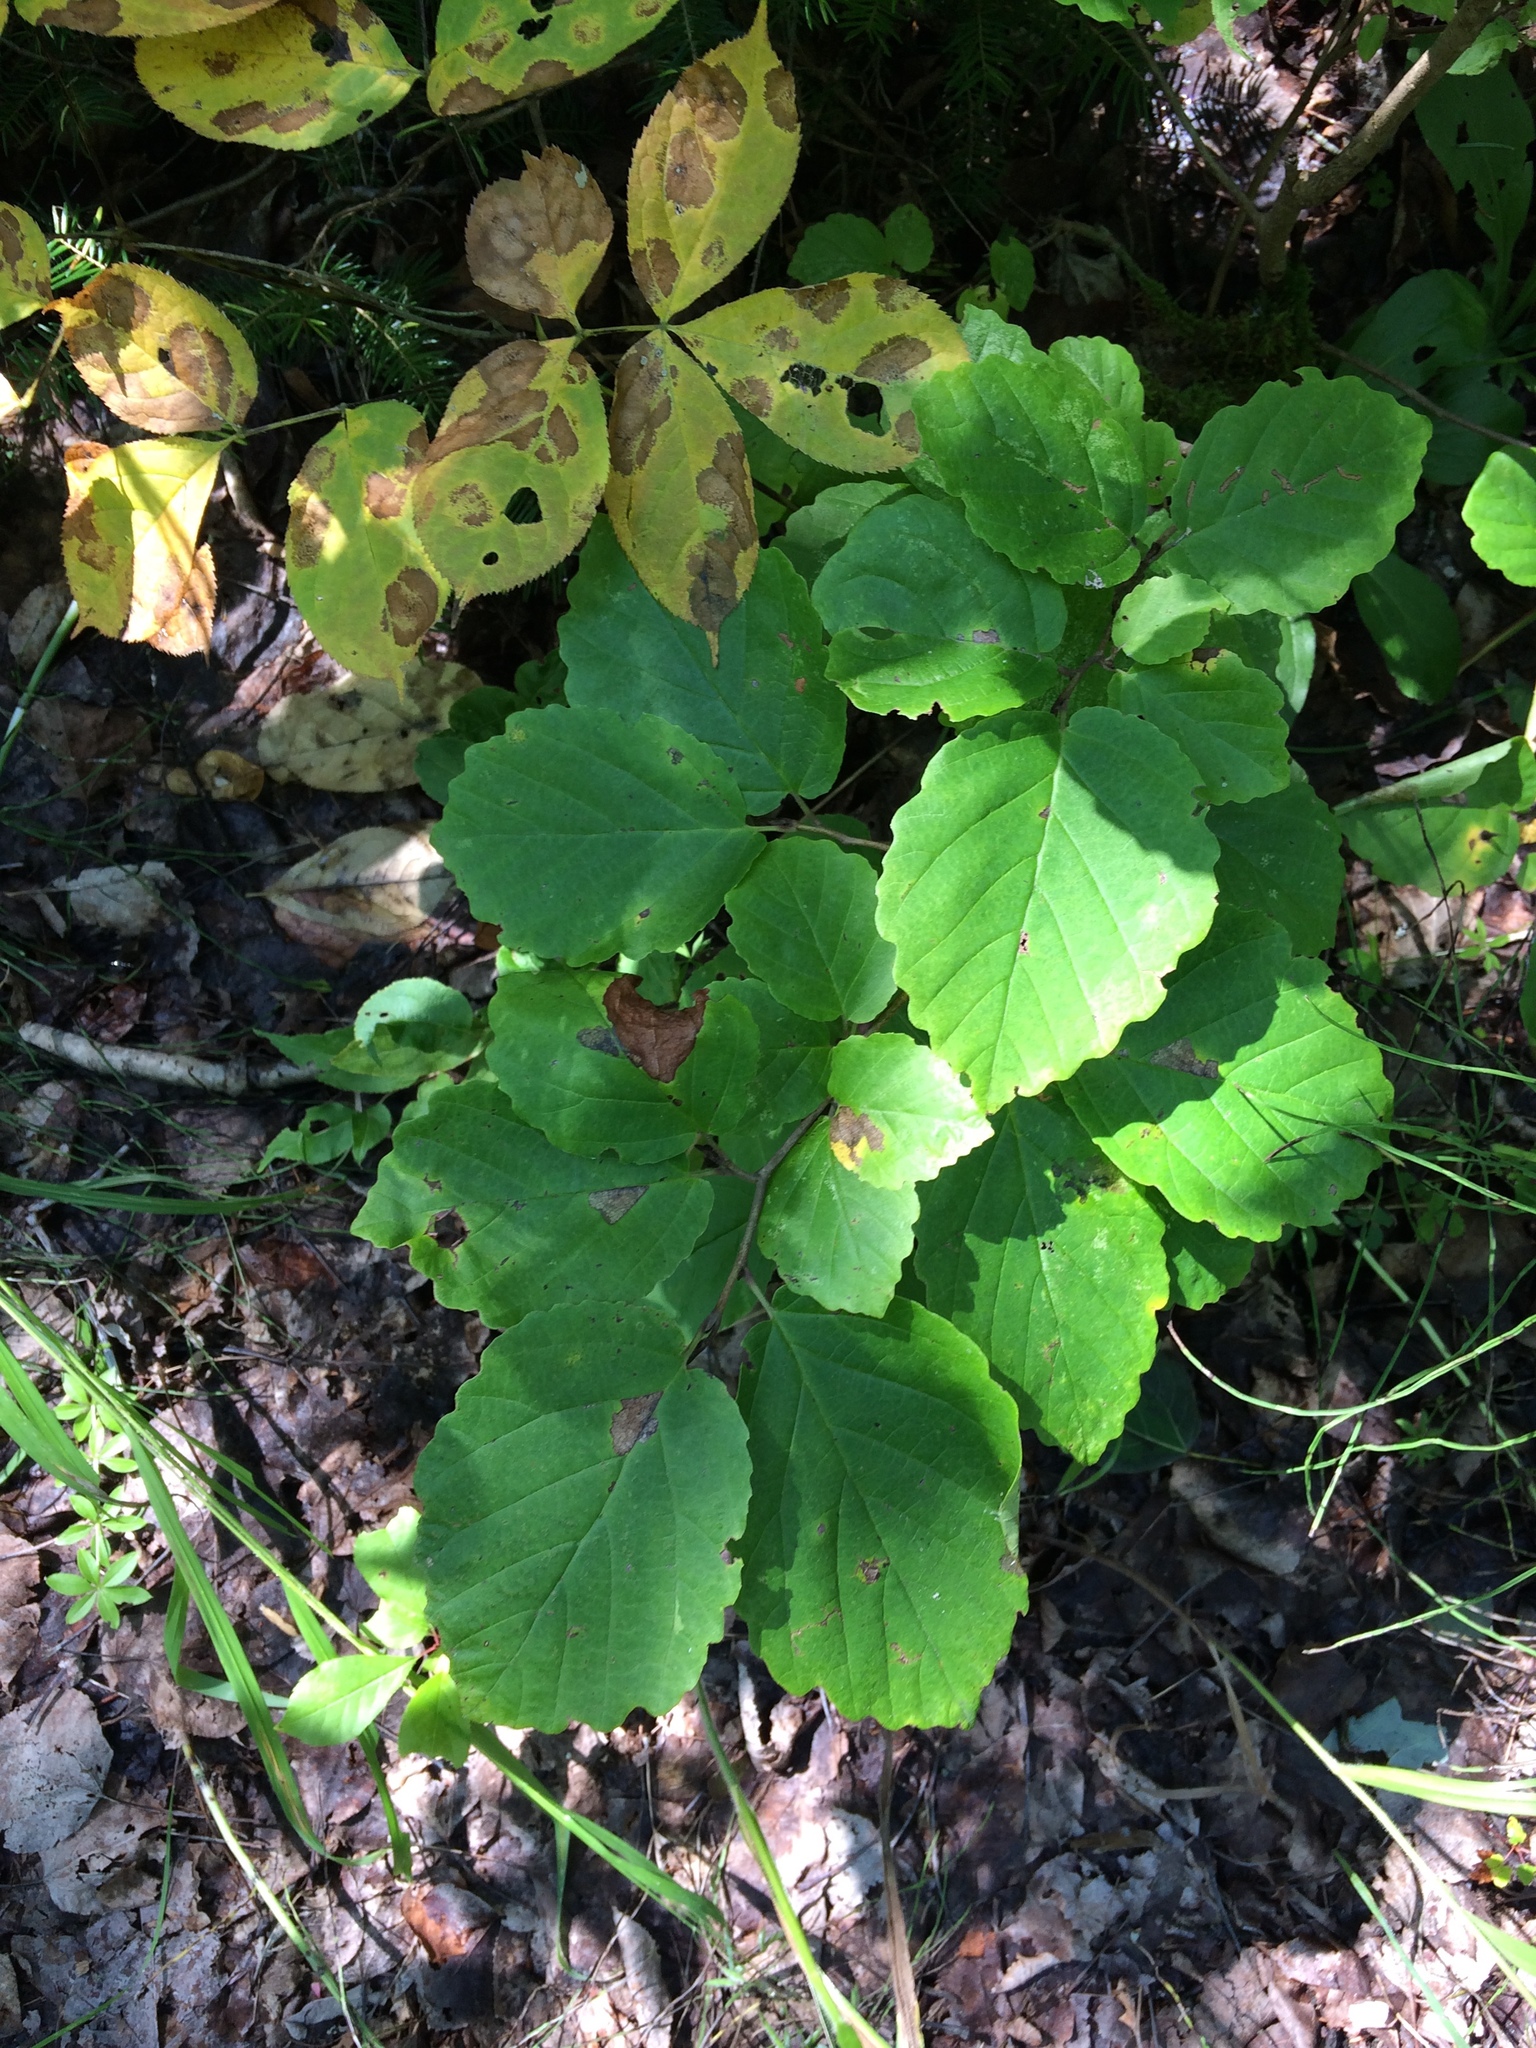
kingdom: Plantae
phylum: Tracheophyta
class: Magnoliopsida
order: Saxifragales
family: Hamamelidaceae
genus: Hamamelis
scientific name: Hamamelis virginiana
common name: Witch-hazel
